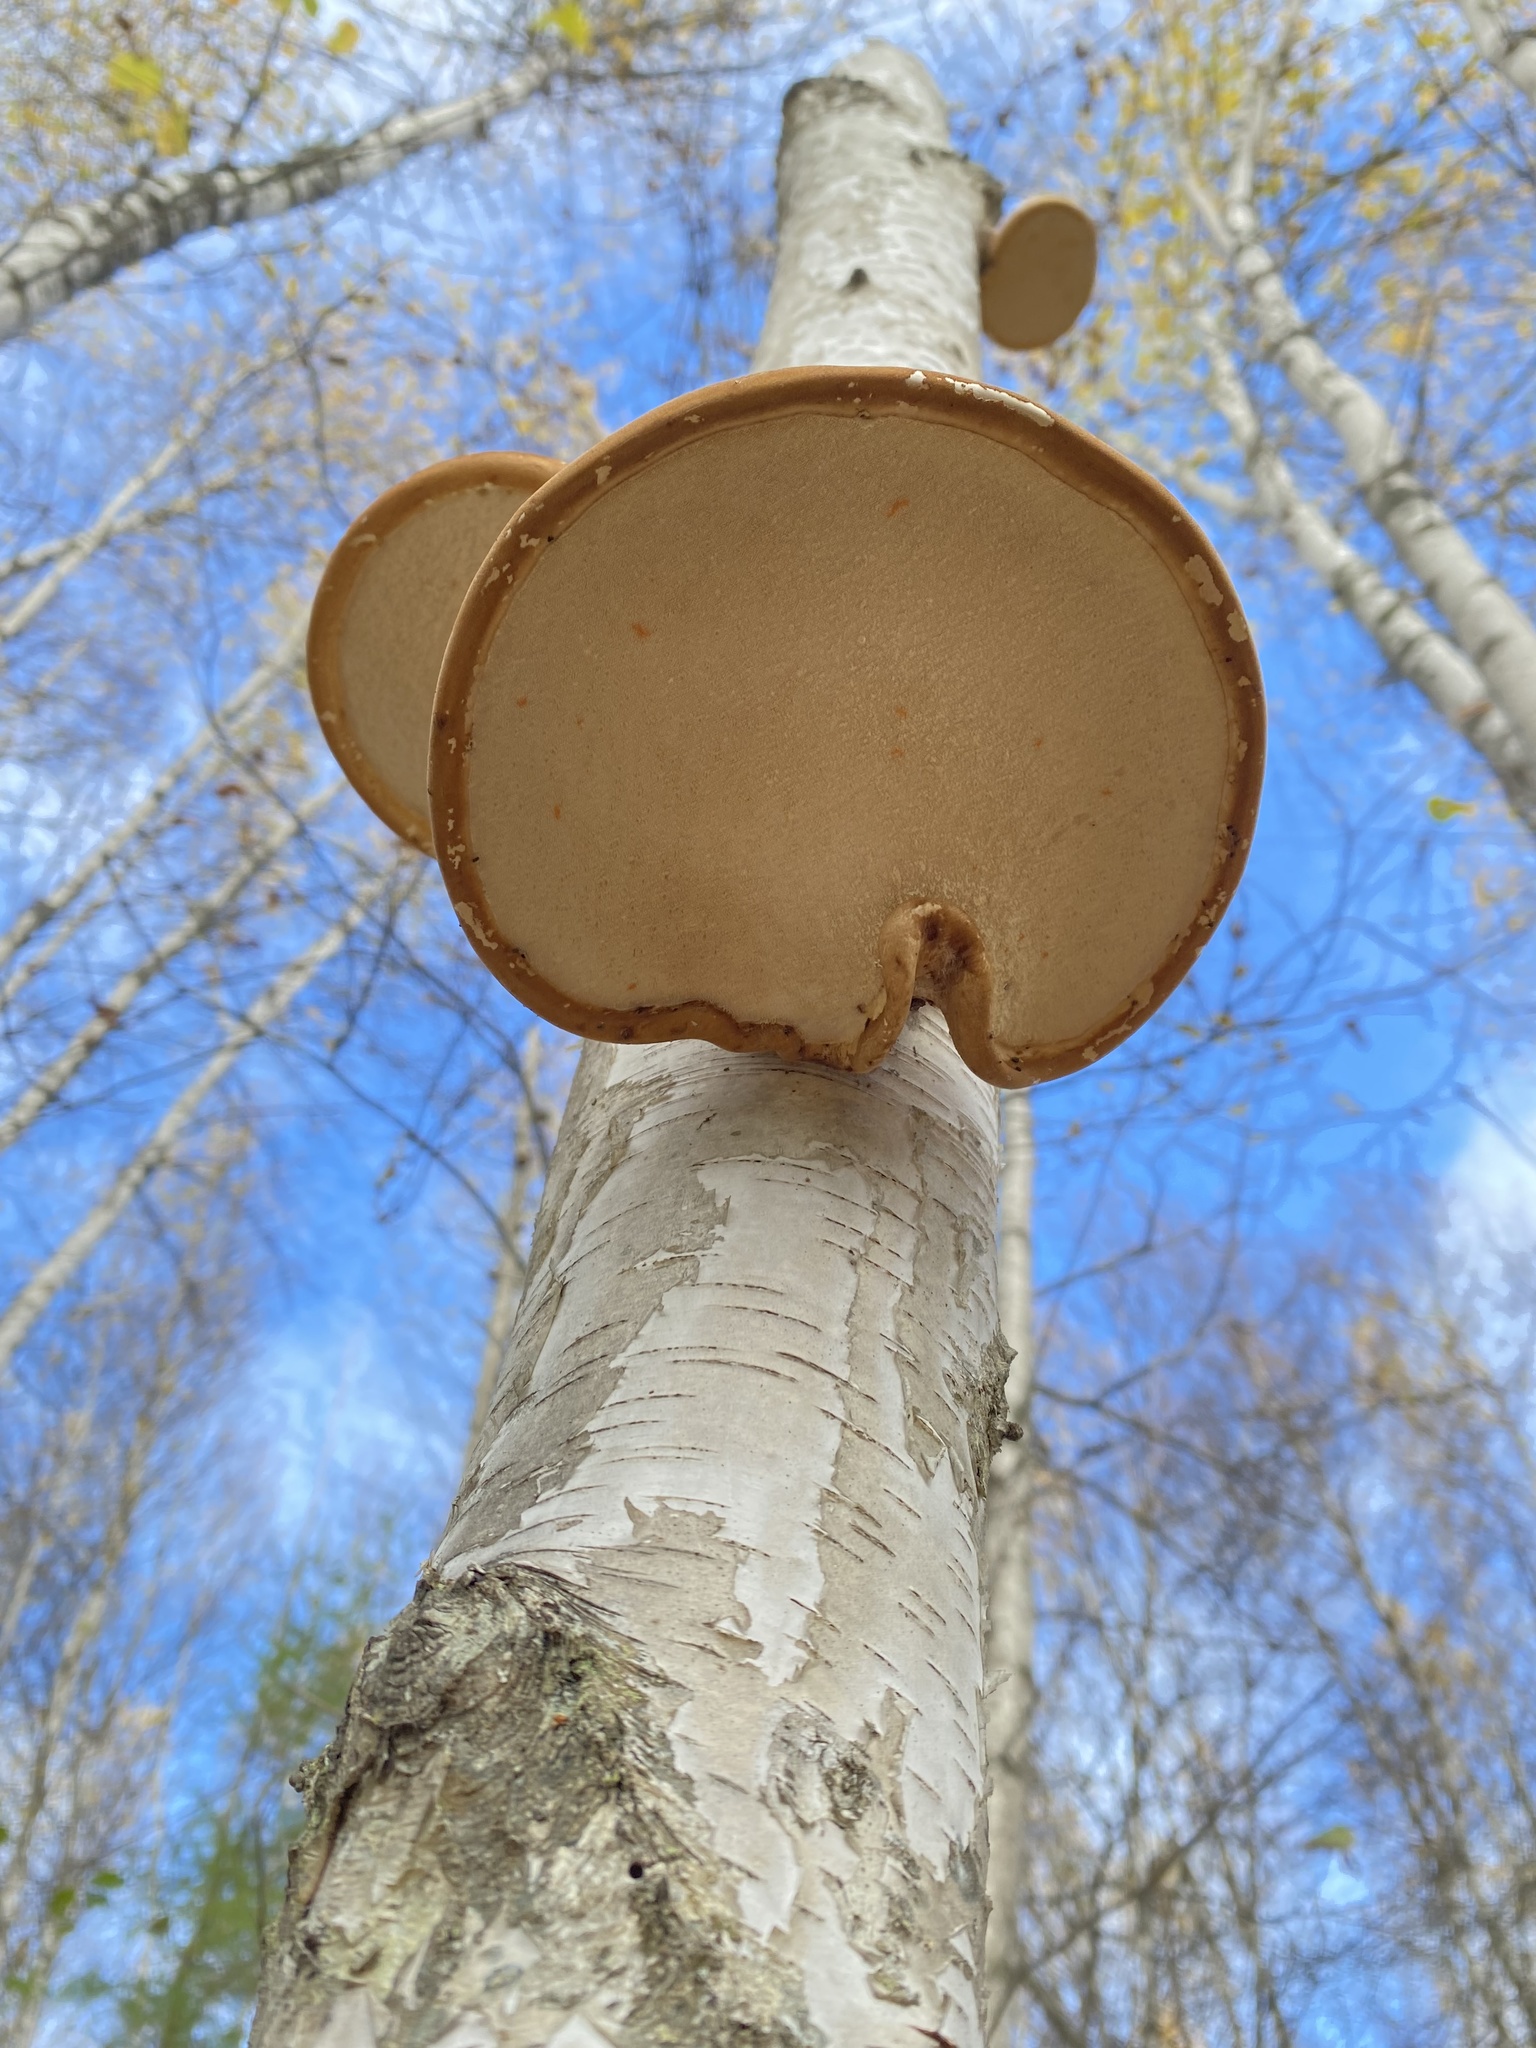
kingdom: Fungi
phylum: Basidiomycota
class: Agaricomycetes
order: Polyporales
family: Fomitopsidaceae
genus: Fomitopsis
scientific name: Fomitopsis betulina
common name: Birch polypore
